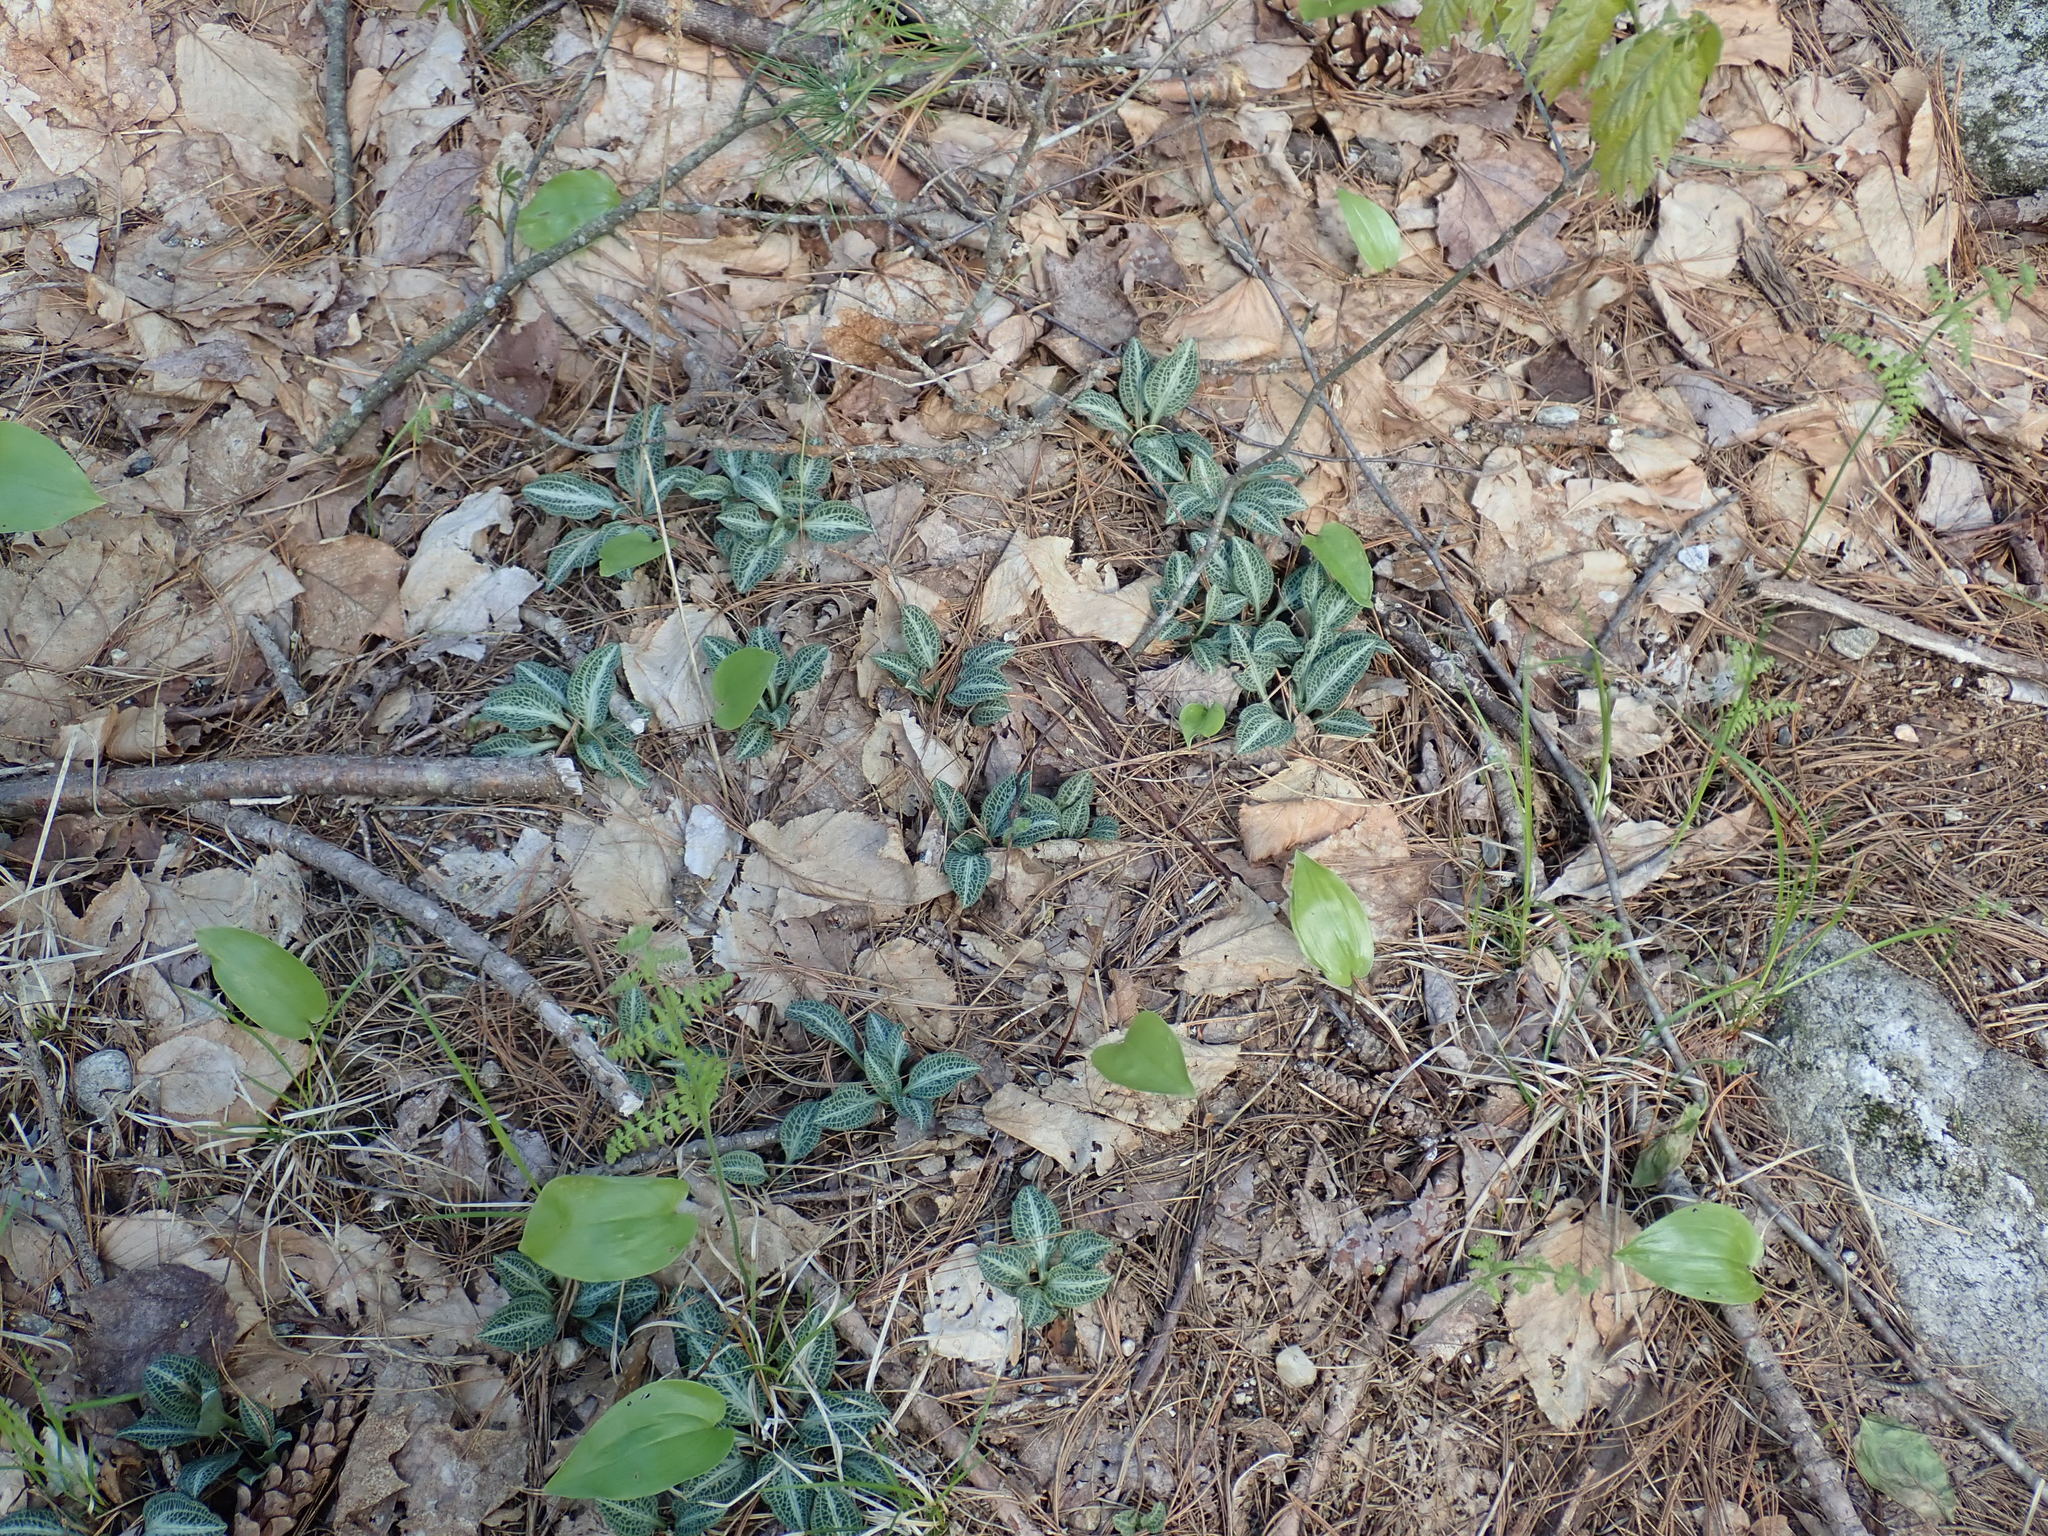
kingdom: Plantae
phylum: Tracheophyta
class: Liliopsida
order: Asparagales
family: Orchidaceae
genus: Goodyera
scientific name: Goodyera pubescens
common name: Downy rattlesnake-plantain
